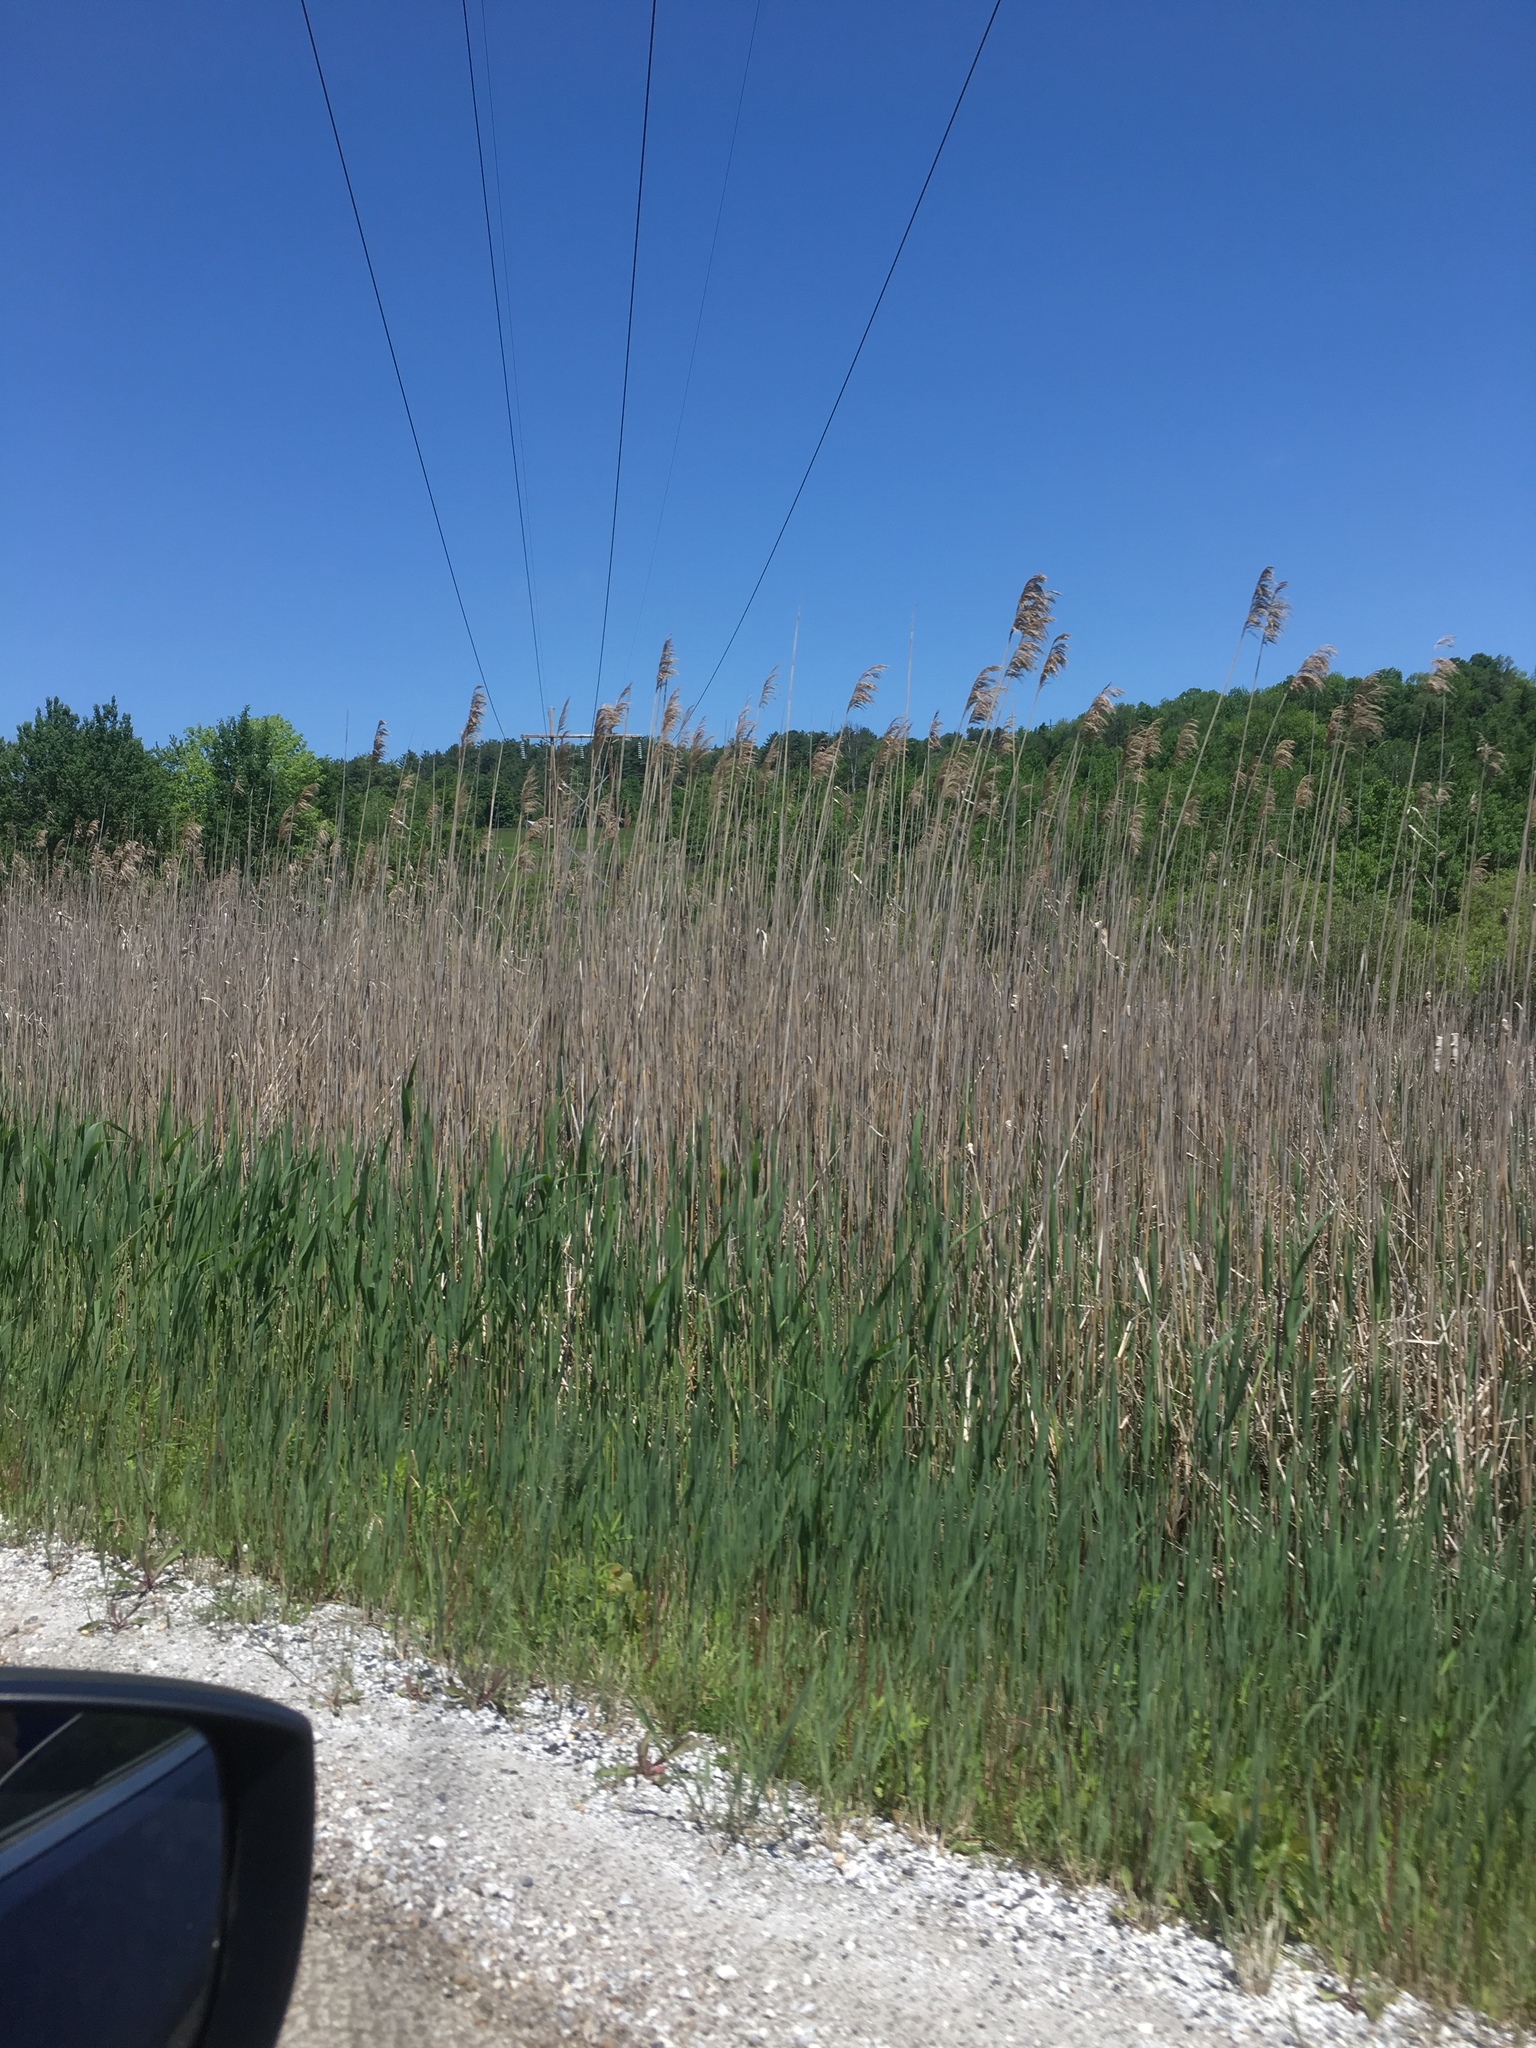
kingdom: Plantae
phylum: Tracheophyta
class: Liliopsida
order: Poales
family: Poaceae
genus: Phragmites
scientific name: Phragmites australis
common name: Common reed
